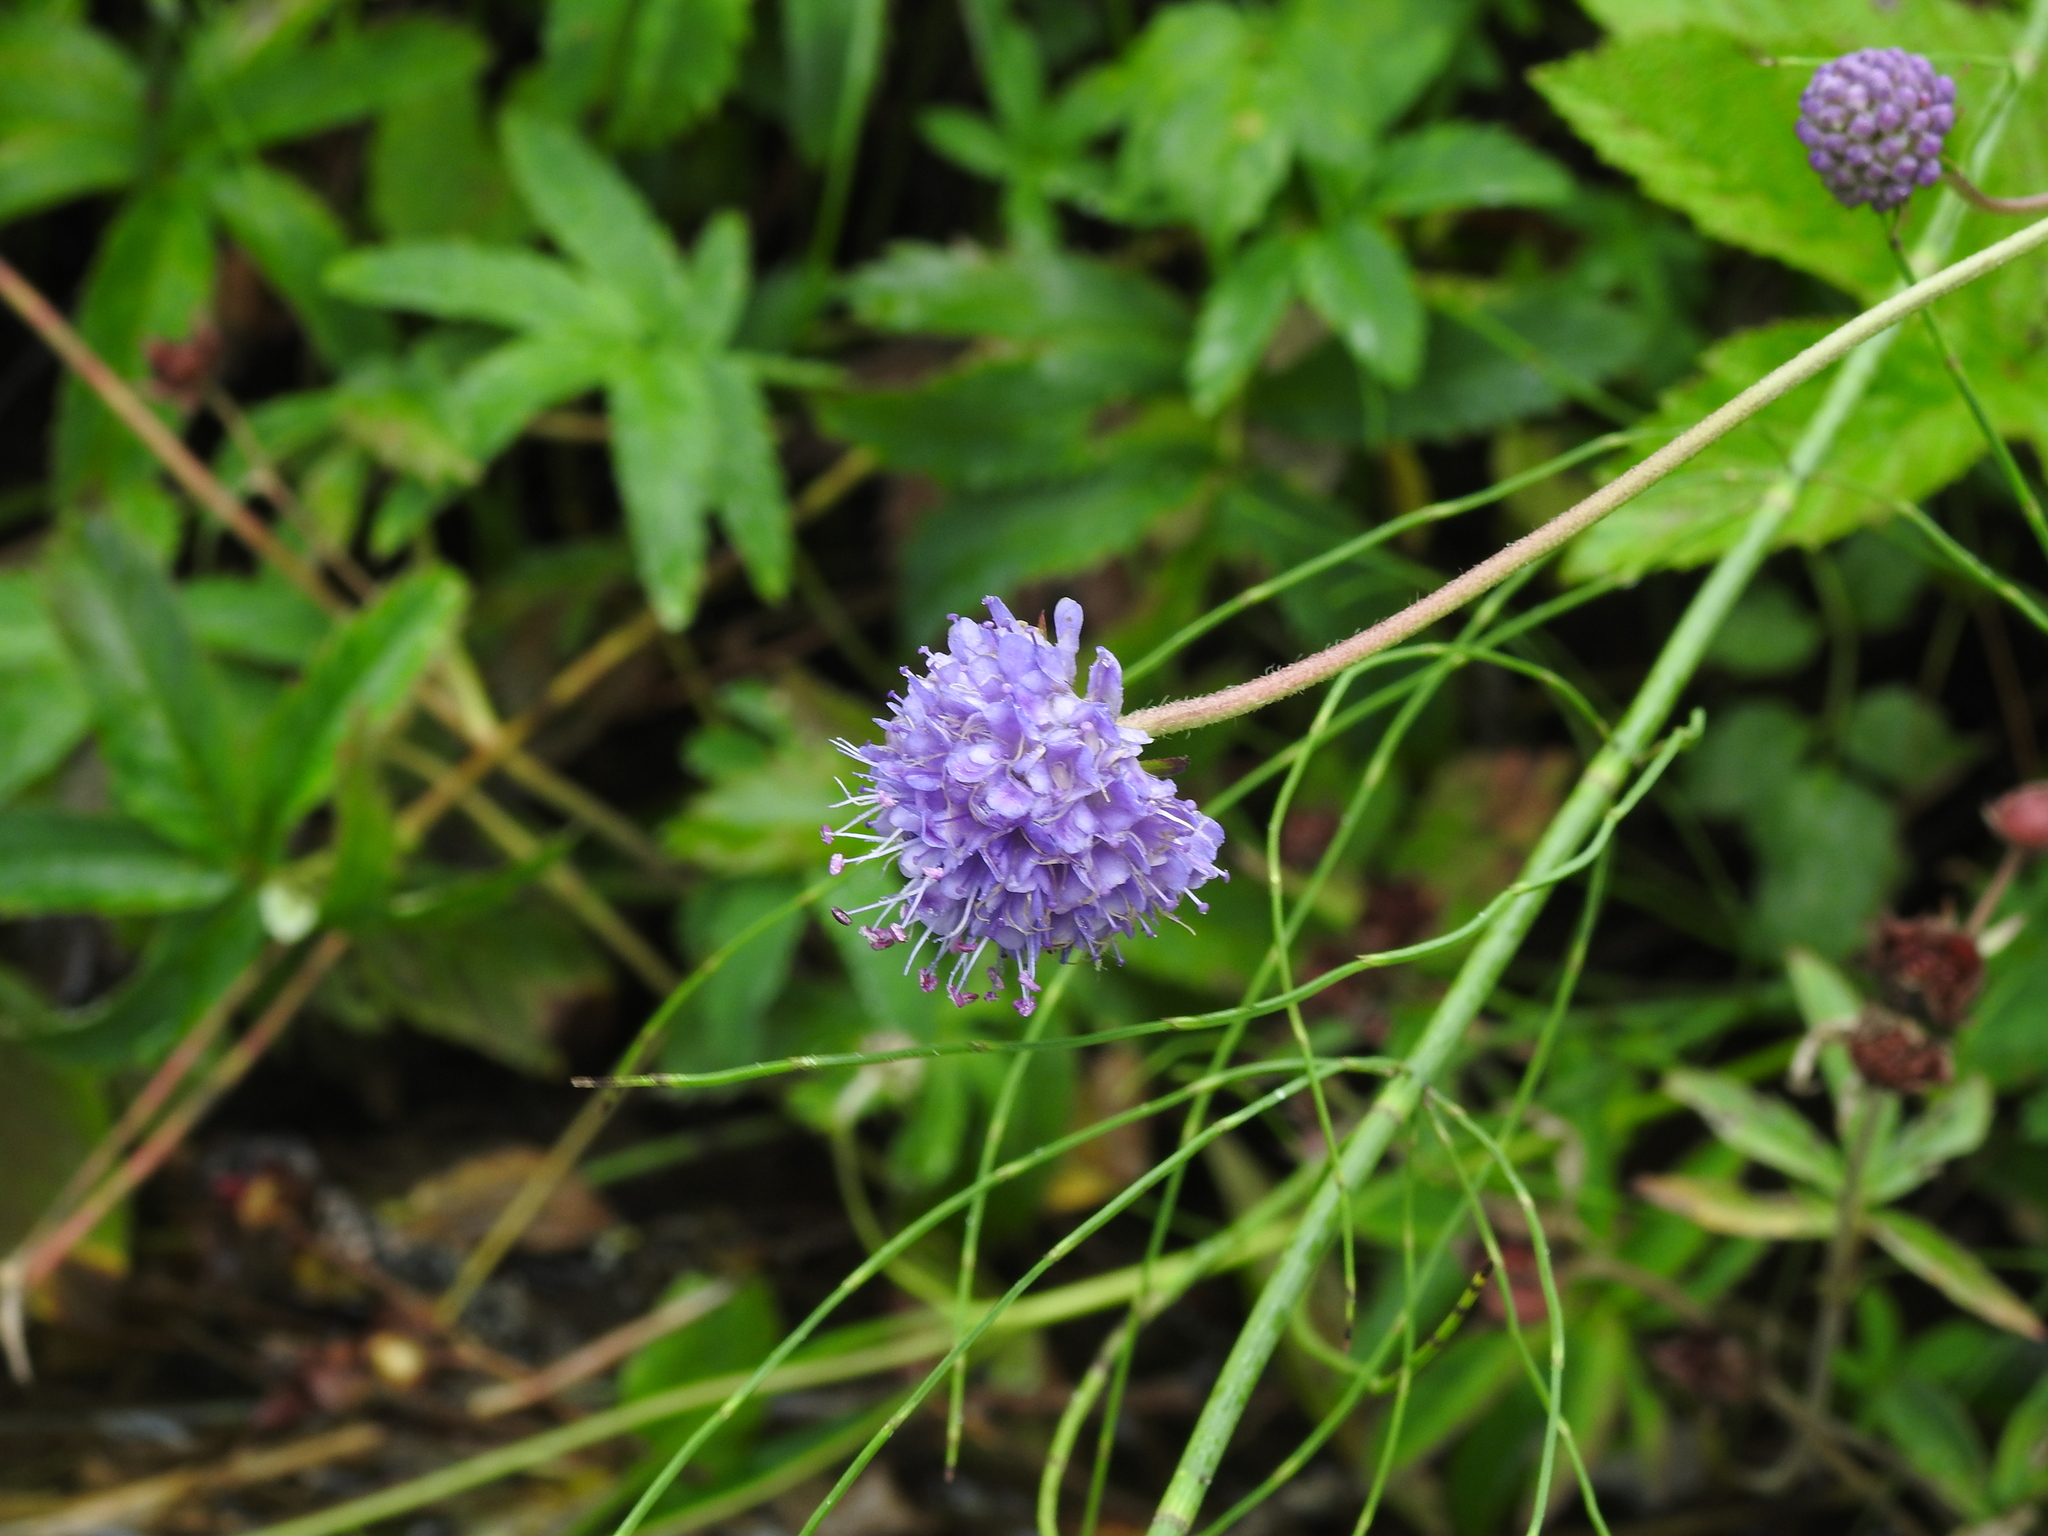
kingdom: Plantae
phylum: Tracheophyta
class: Magnoliopsida
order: Dipsacales
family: Caprifoliaceae
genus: Succisa
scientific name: Succisa pratensis
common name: Devil's-bit
